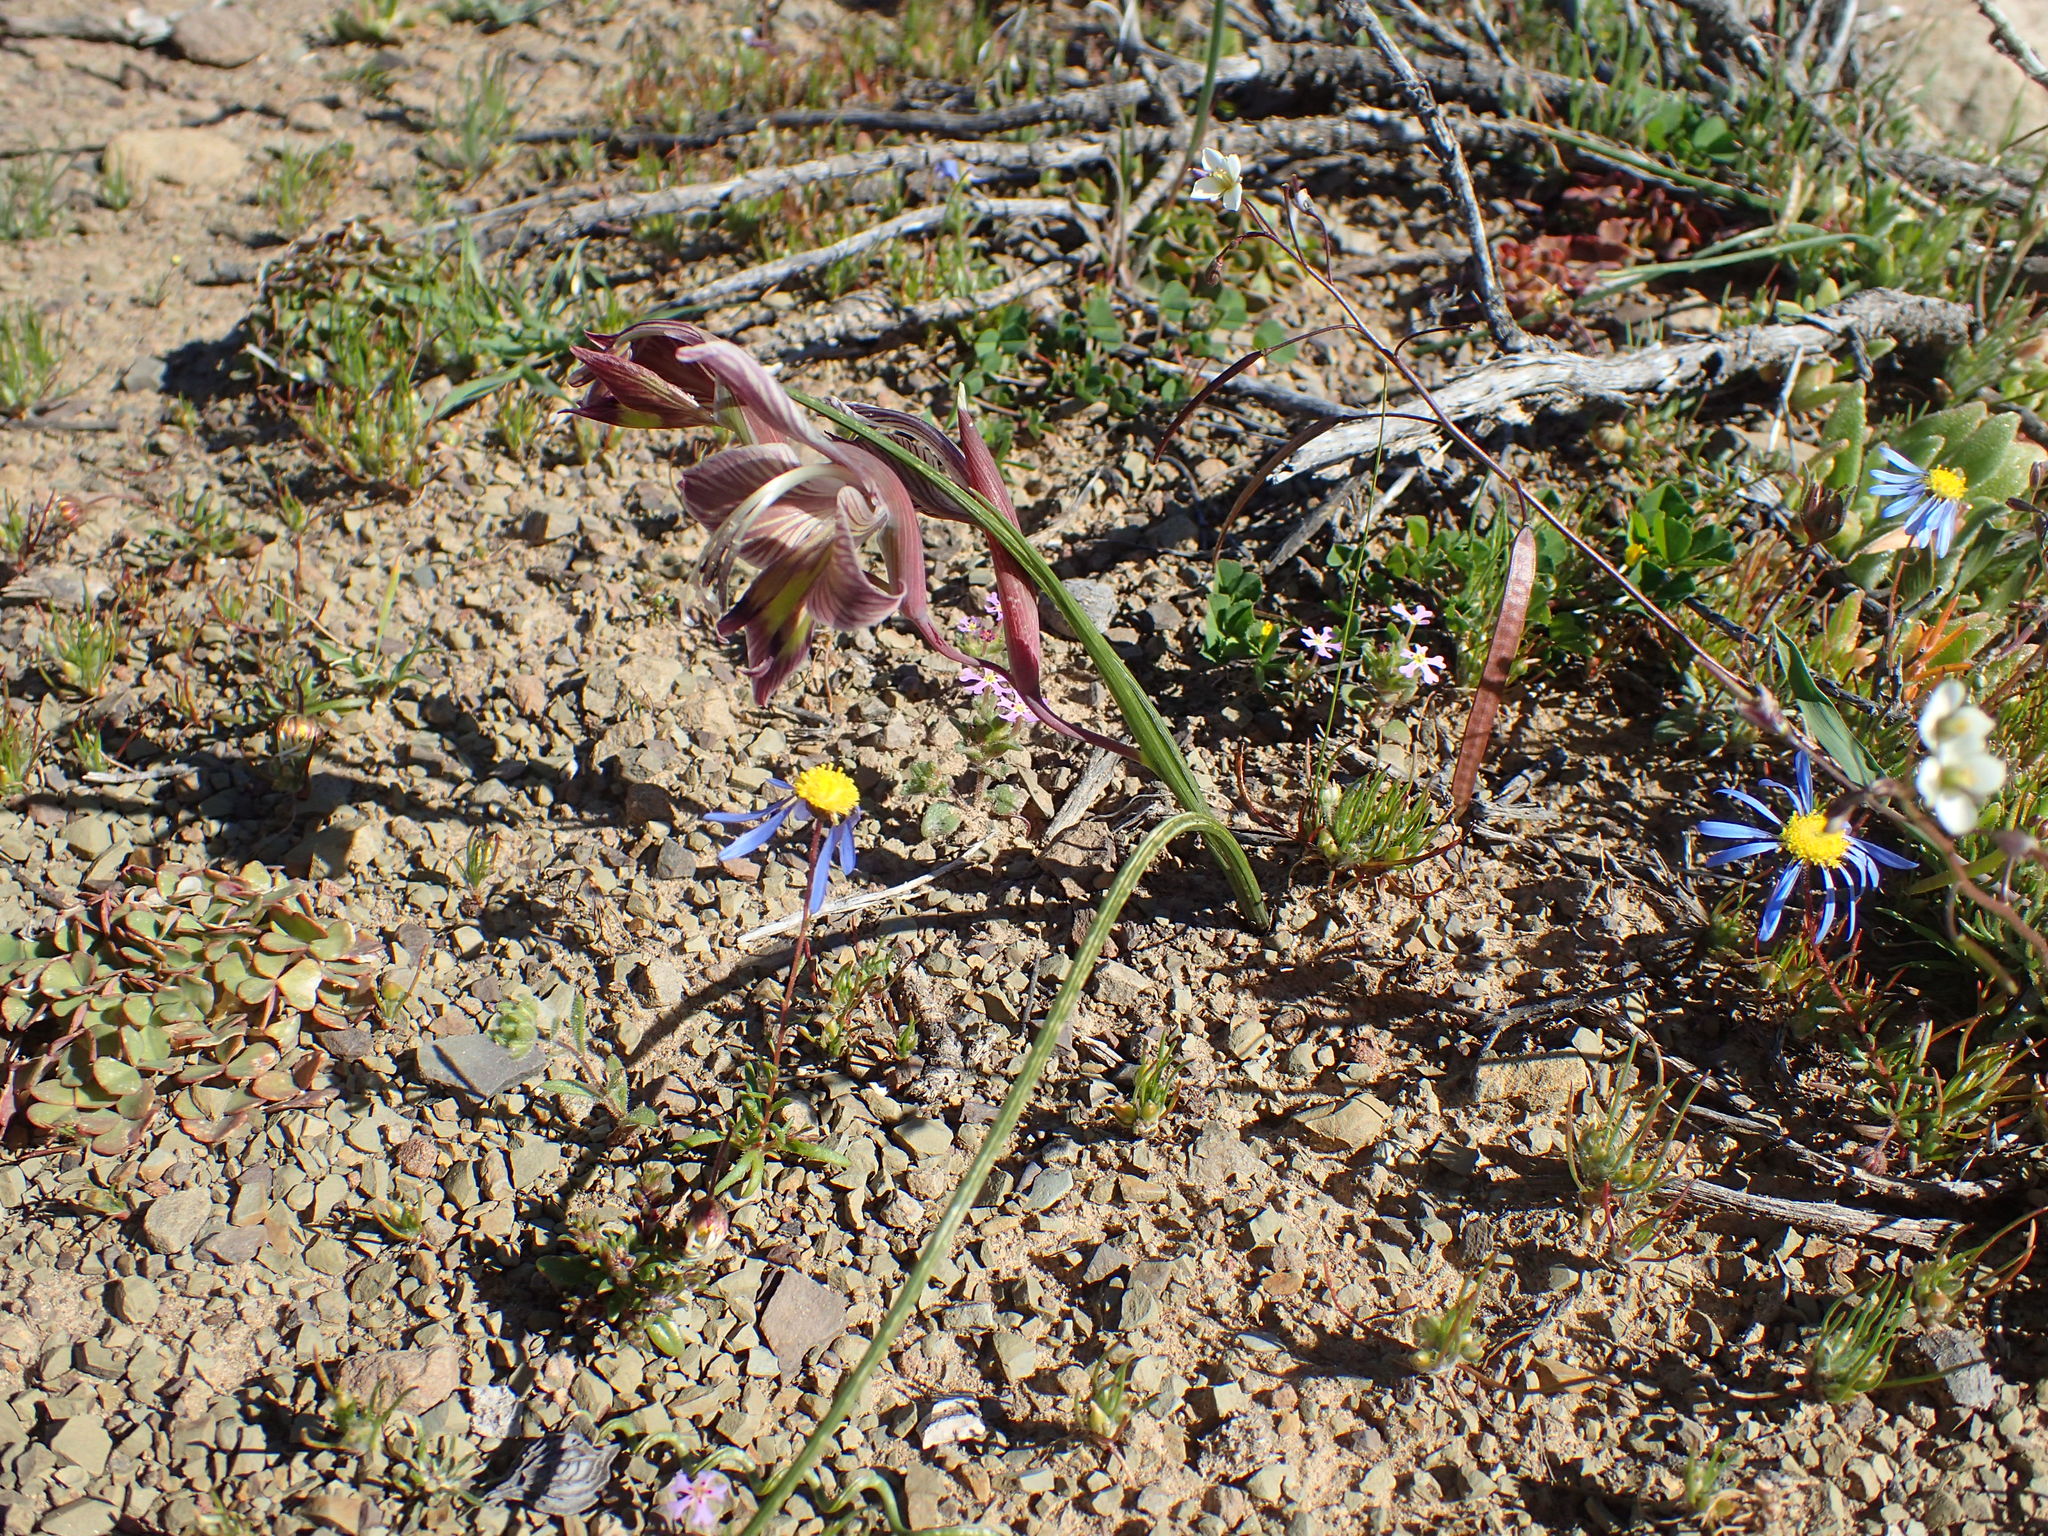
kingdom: Plantae
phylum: Tracheophyta
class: Liliopsida
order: Asparagales
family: Iridaceae
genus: Gladiolus
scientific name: Gladiolus ceresianus
